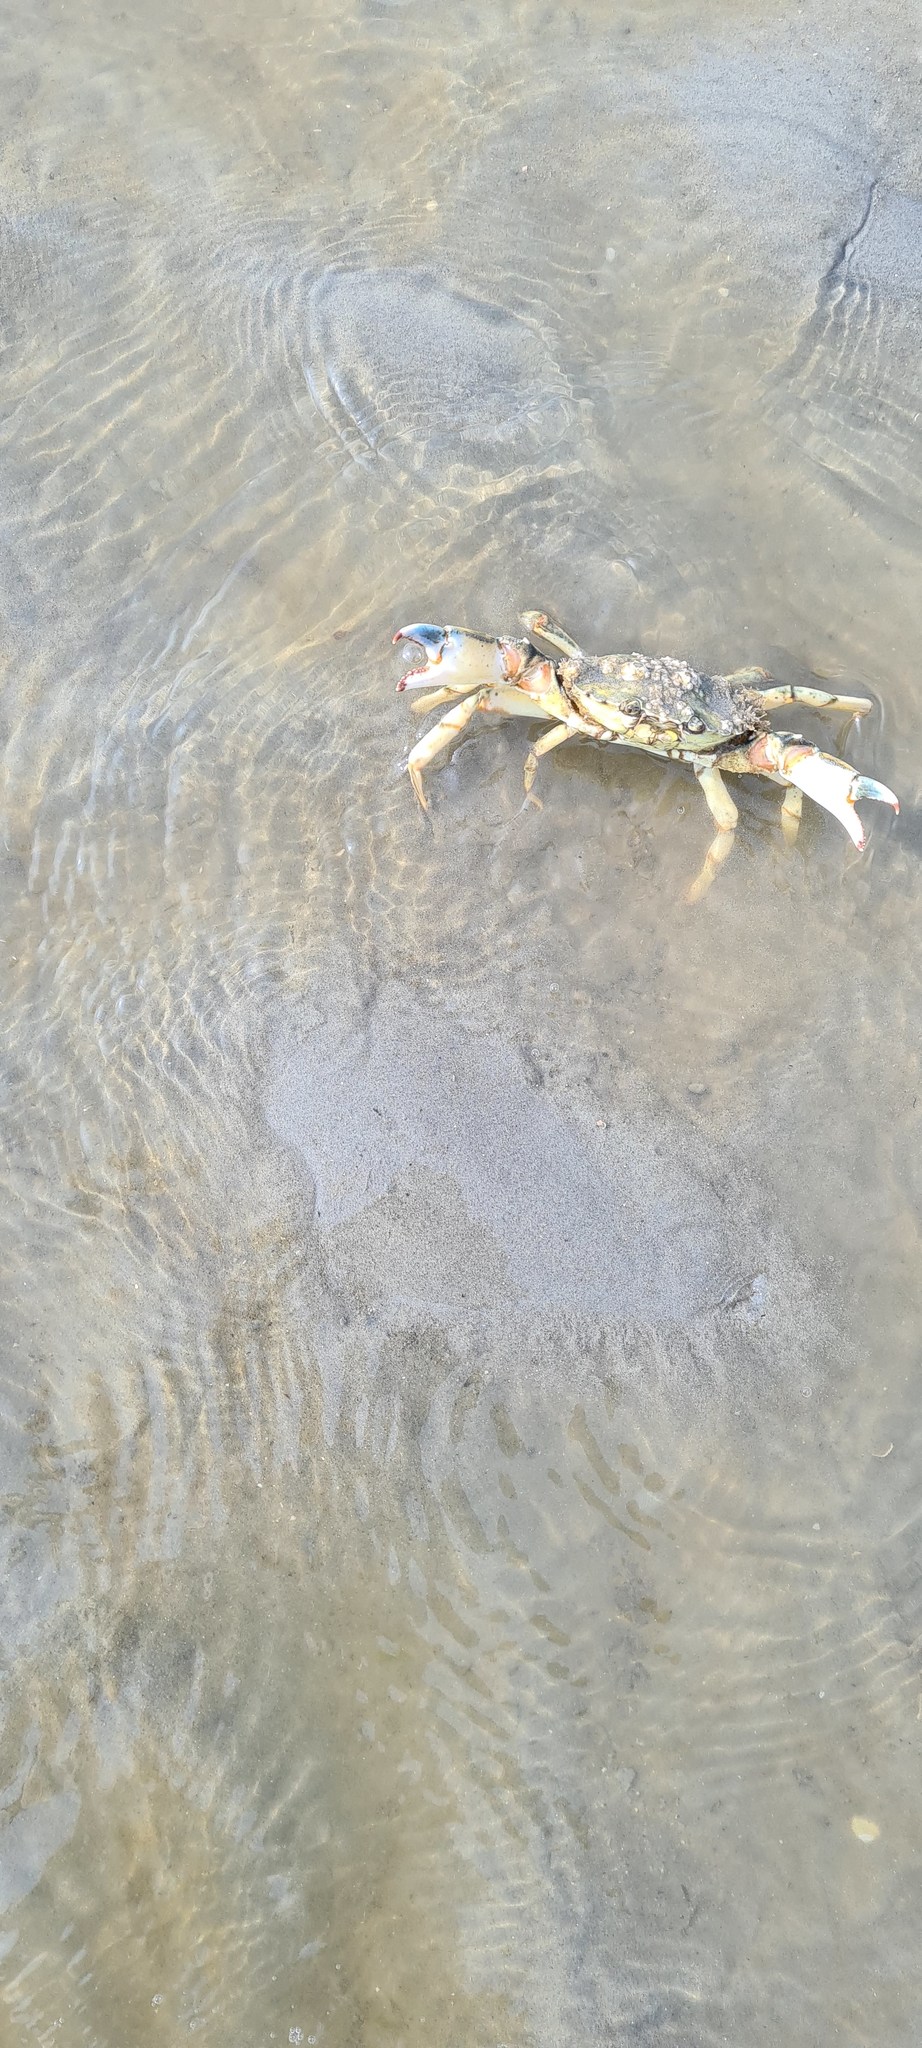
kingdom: Animalia
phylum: Arthropoda
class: Malacostraca
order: Decapoda
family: Carcinidae
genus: Carcinus
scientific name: Carcinus maenas
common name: European green crab
